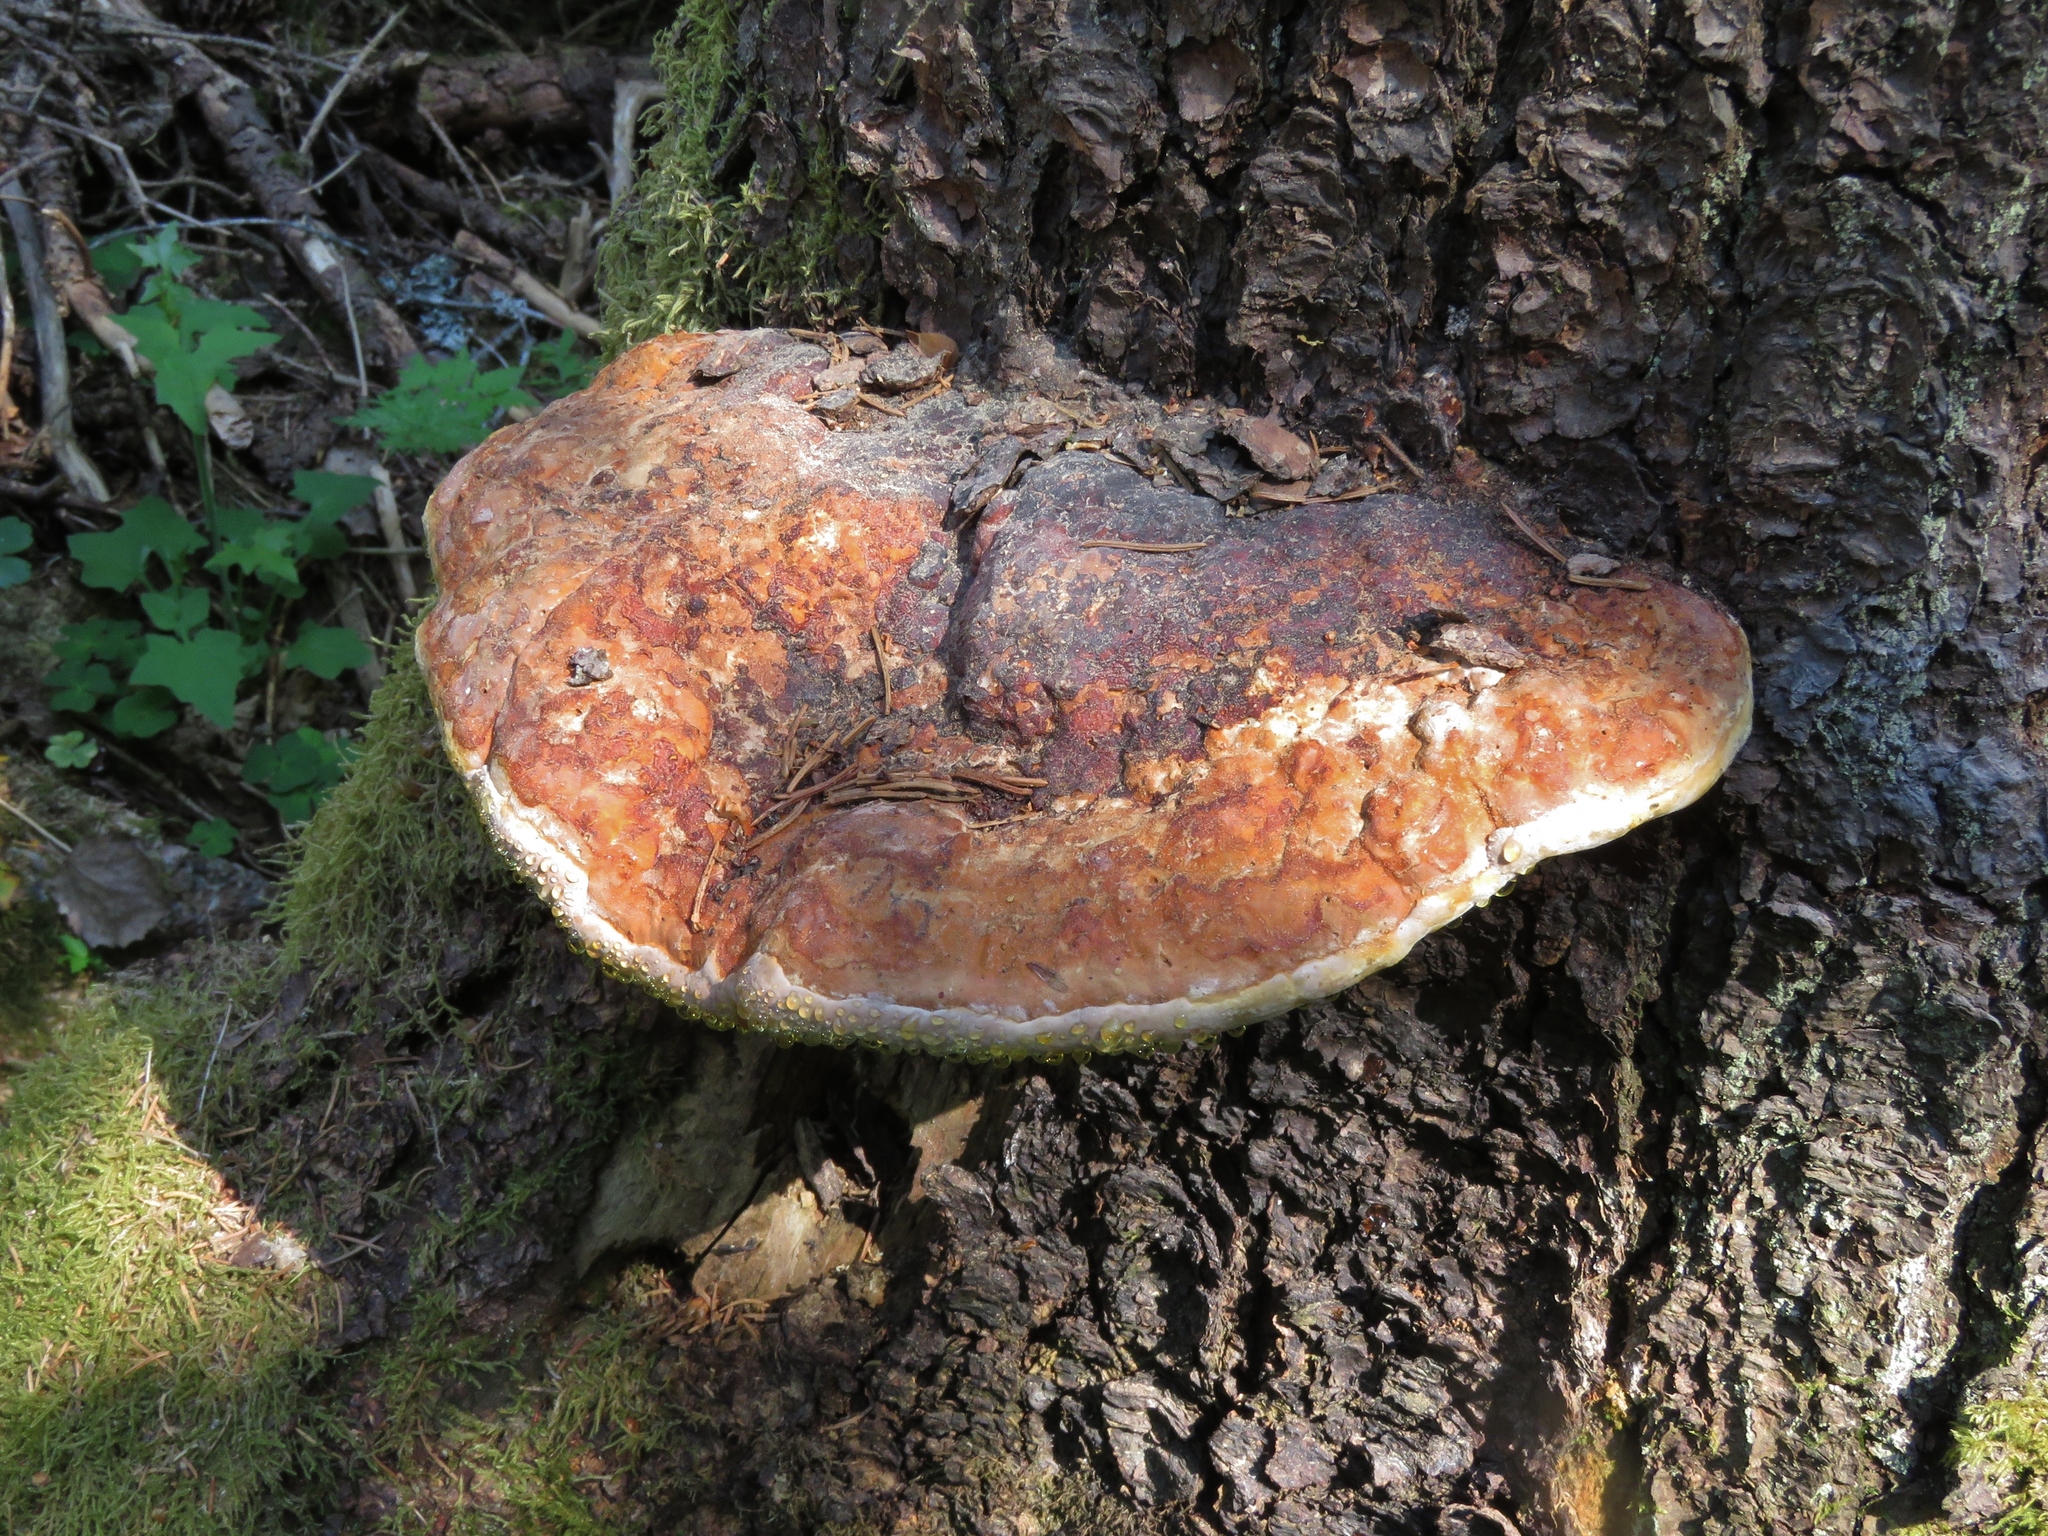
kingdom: Fungi
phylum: Basidiomycota
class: Agaricomycetes
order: Polyporales
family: Fomitopsidaceae
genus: Fomitopsis
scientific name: Fomitopsis pinicola
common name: Red-belted bracket
